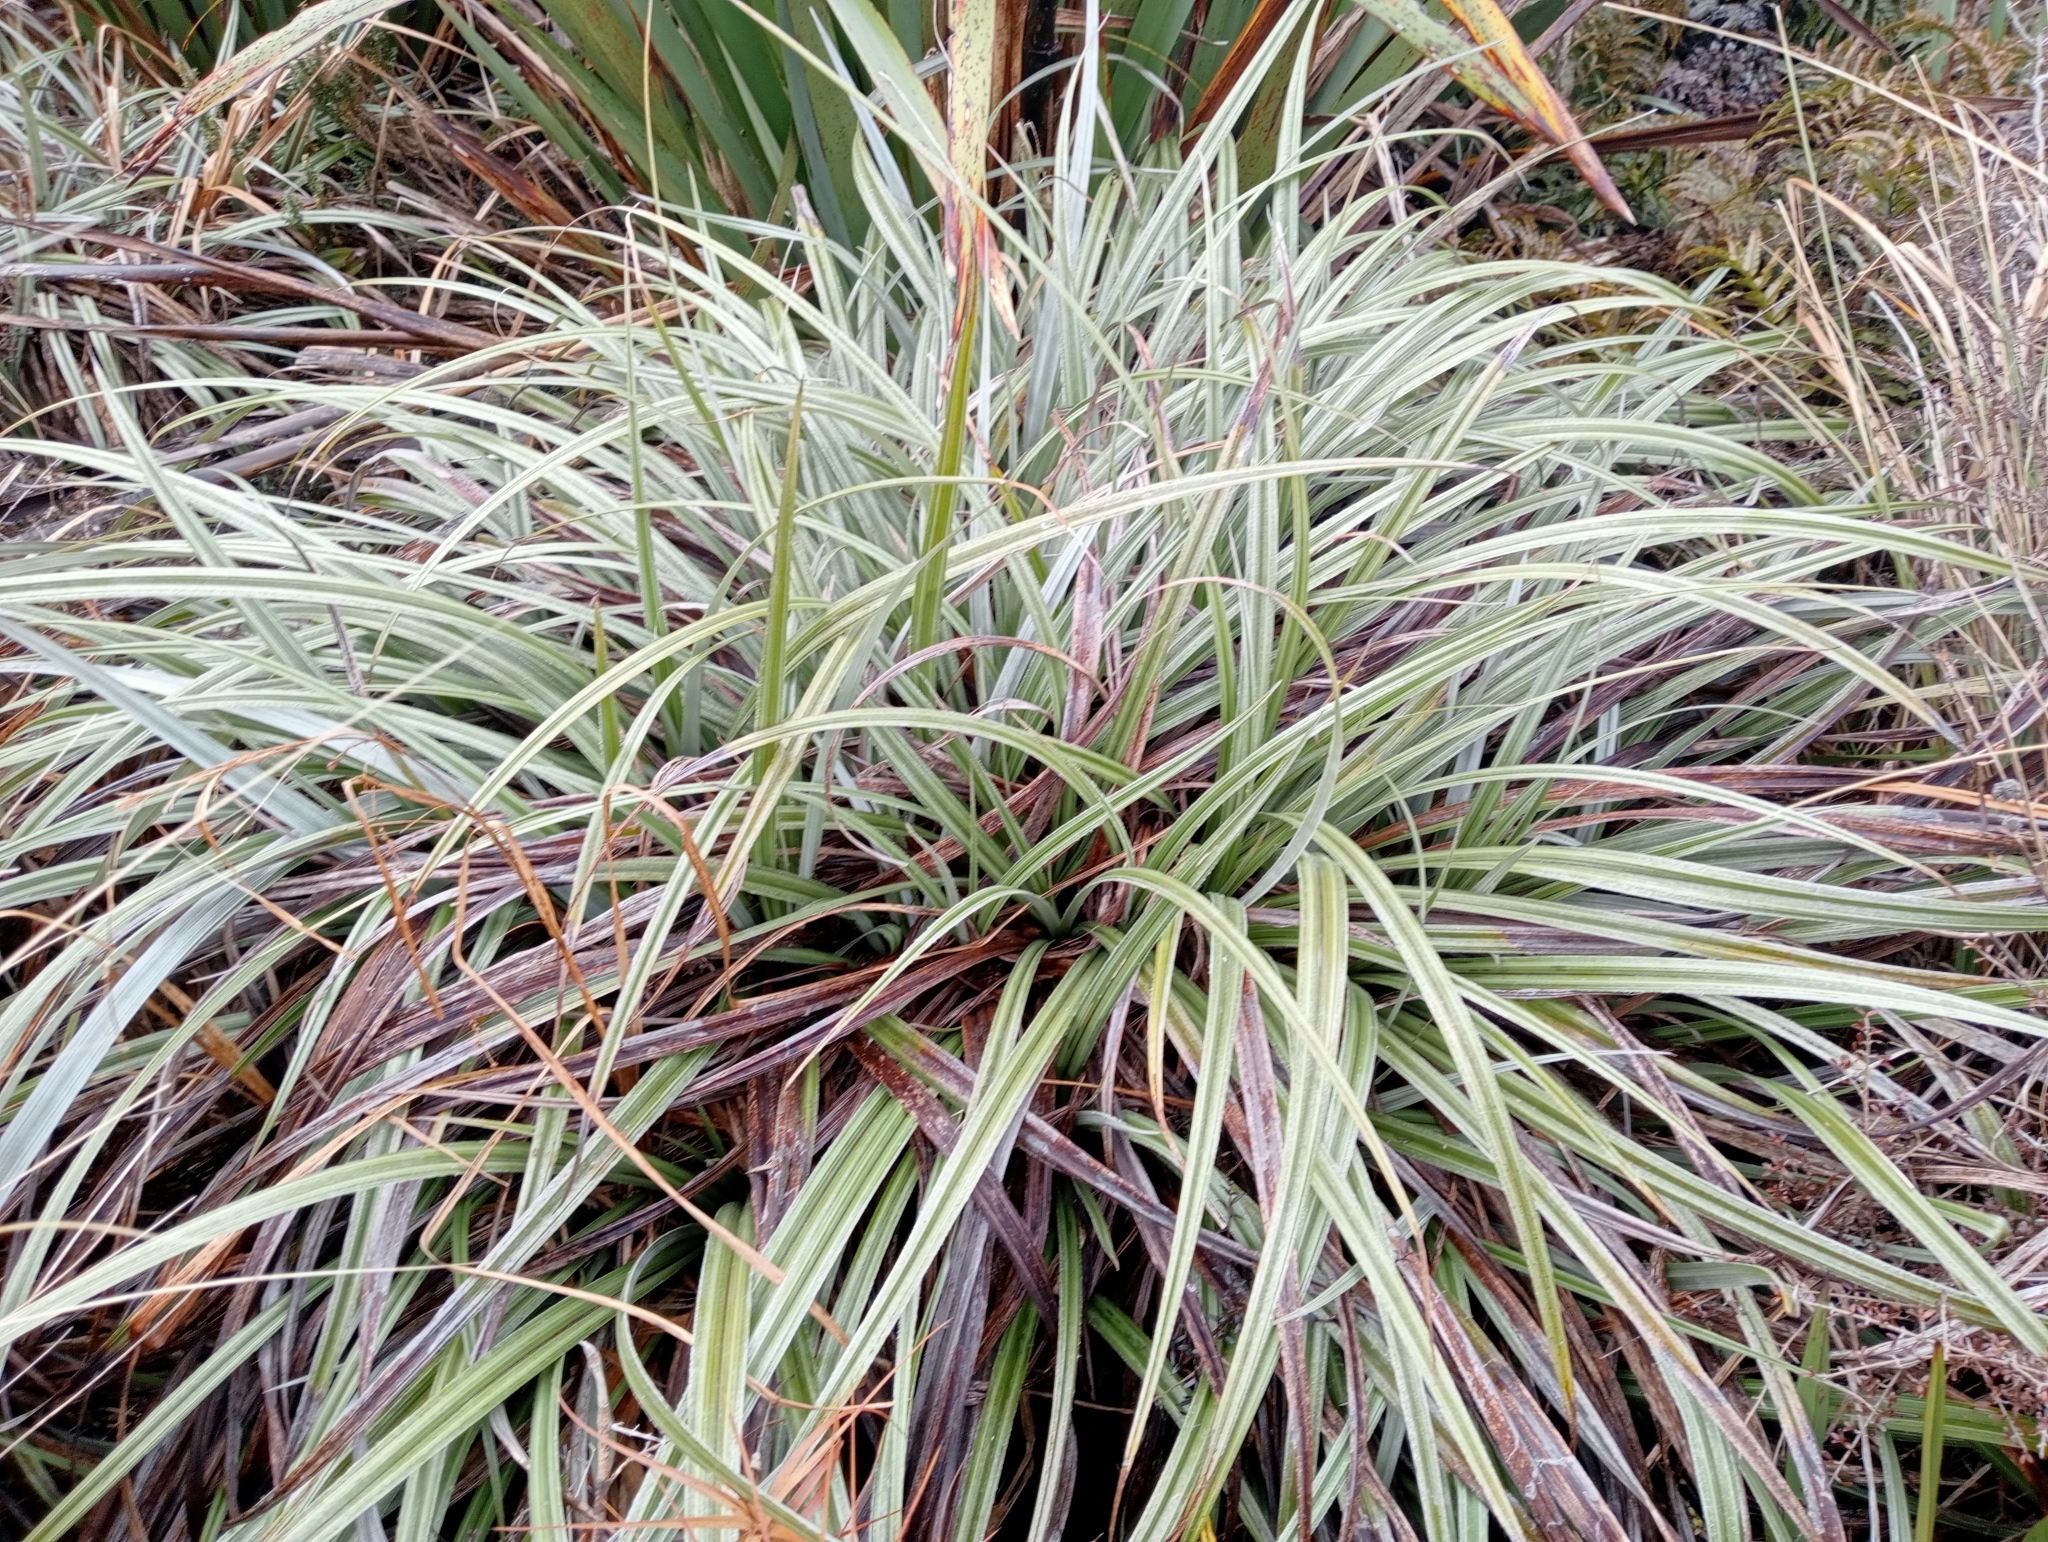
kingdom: Plantae
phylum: Tracheophyta
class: Liliopsida
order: Asparagales
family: Asteliaceae
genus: Astelia
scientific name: Astelia nervosa
